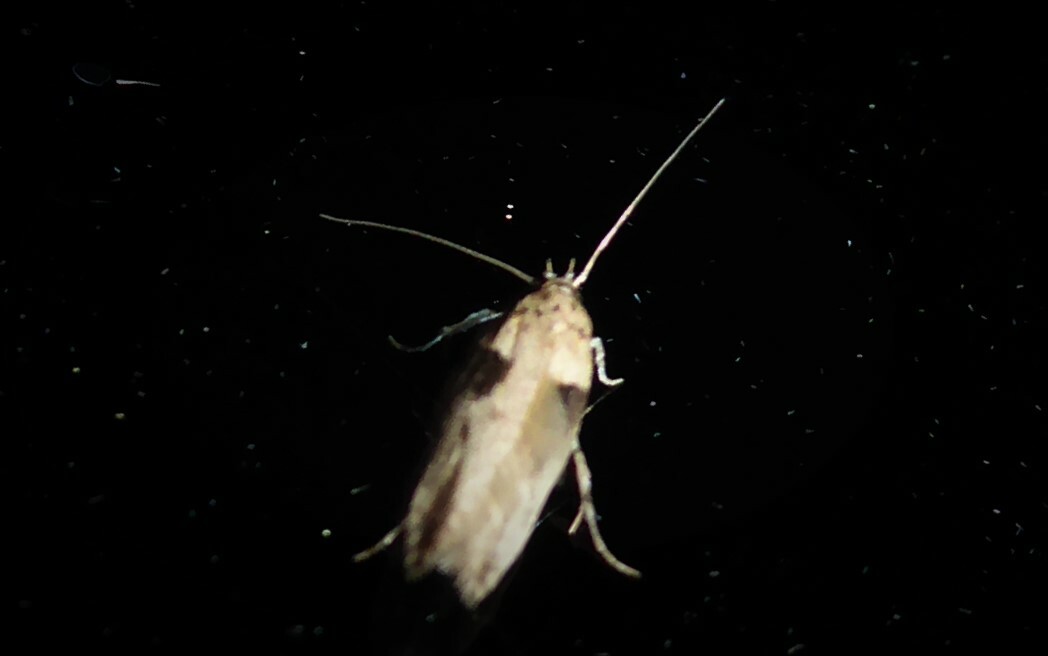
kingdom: Animalia
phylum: Arthropoda
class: Insecta
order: Lepidoptera
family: Gelechiidae
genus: Symmetrischema
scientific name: Symmetrischema tangolias
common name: Moth
